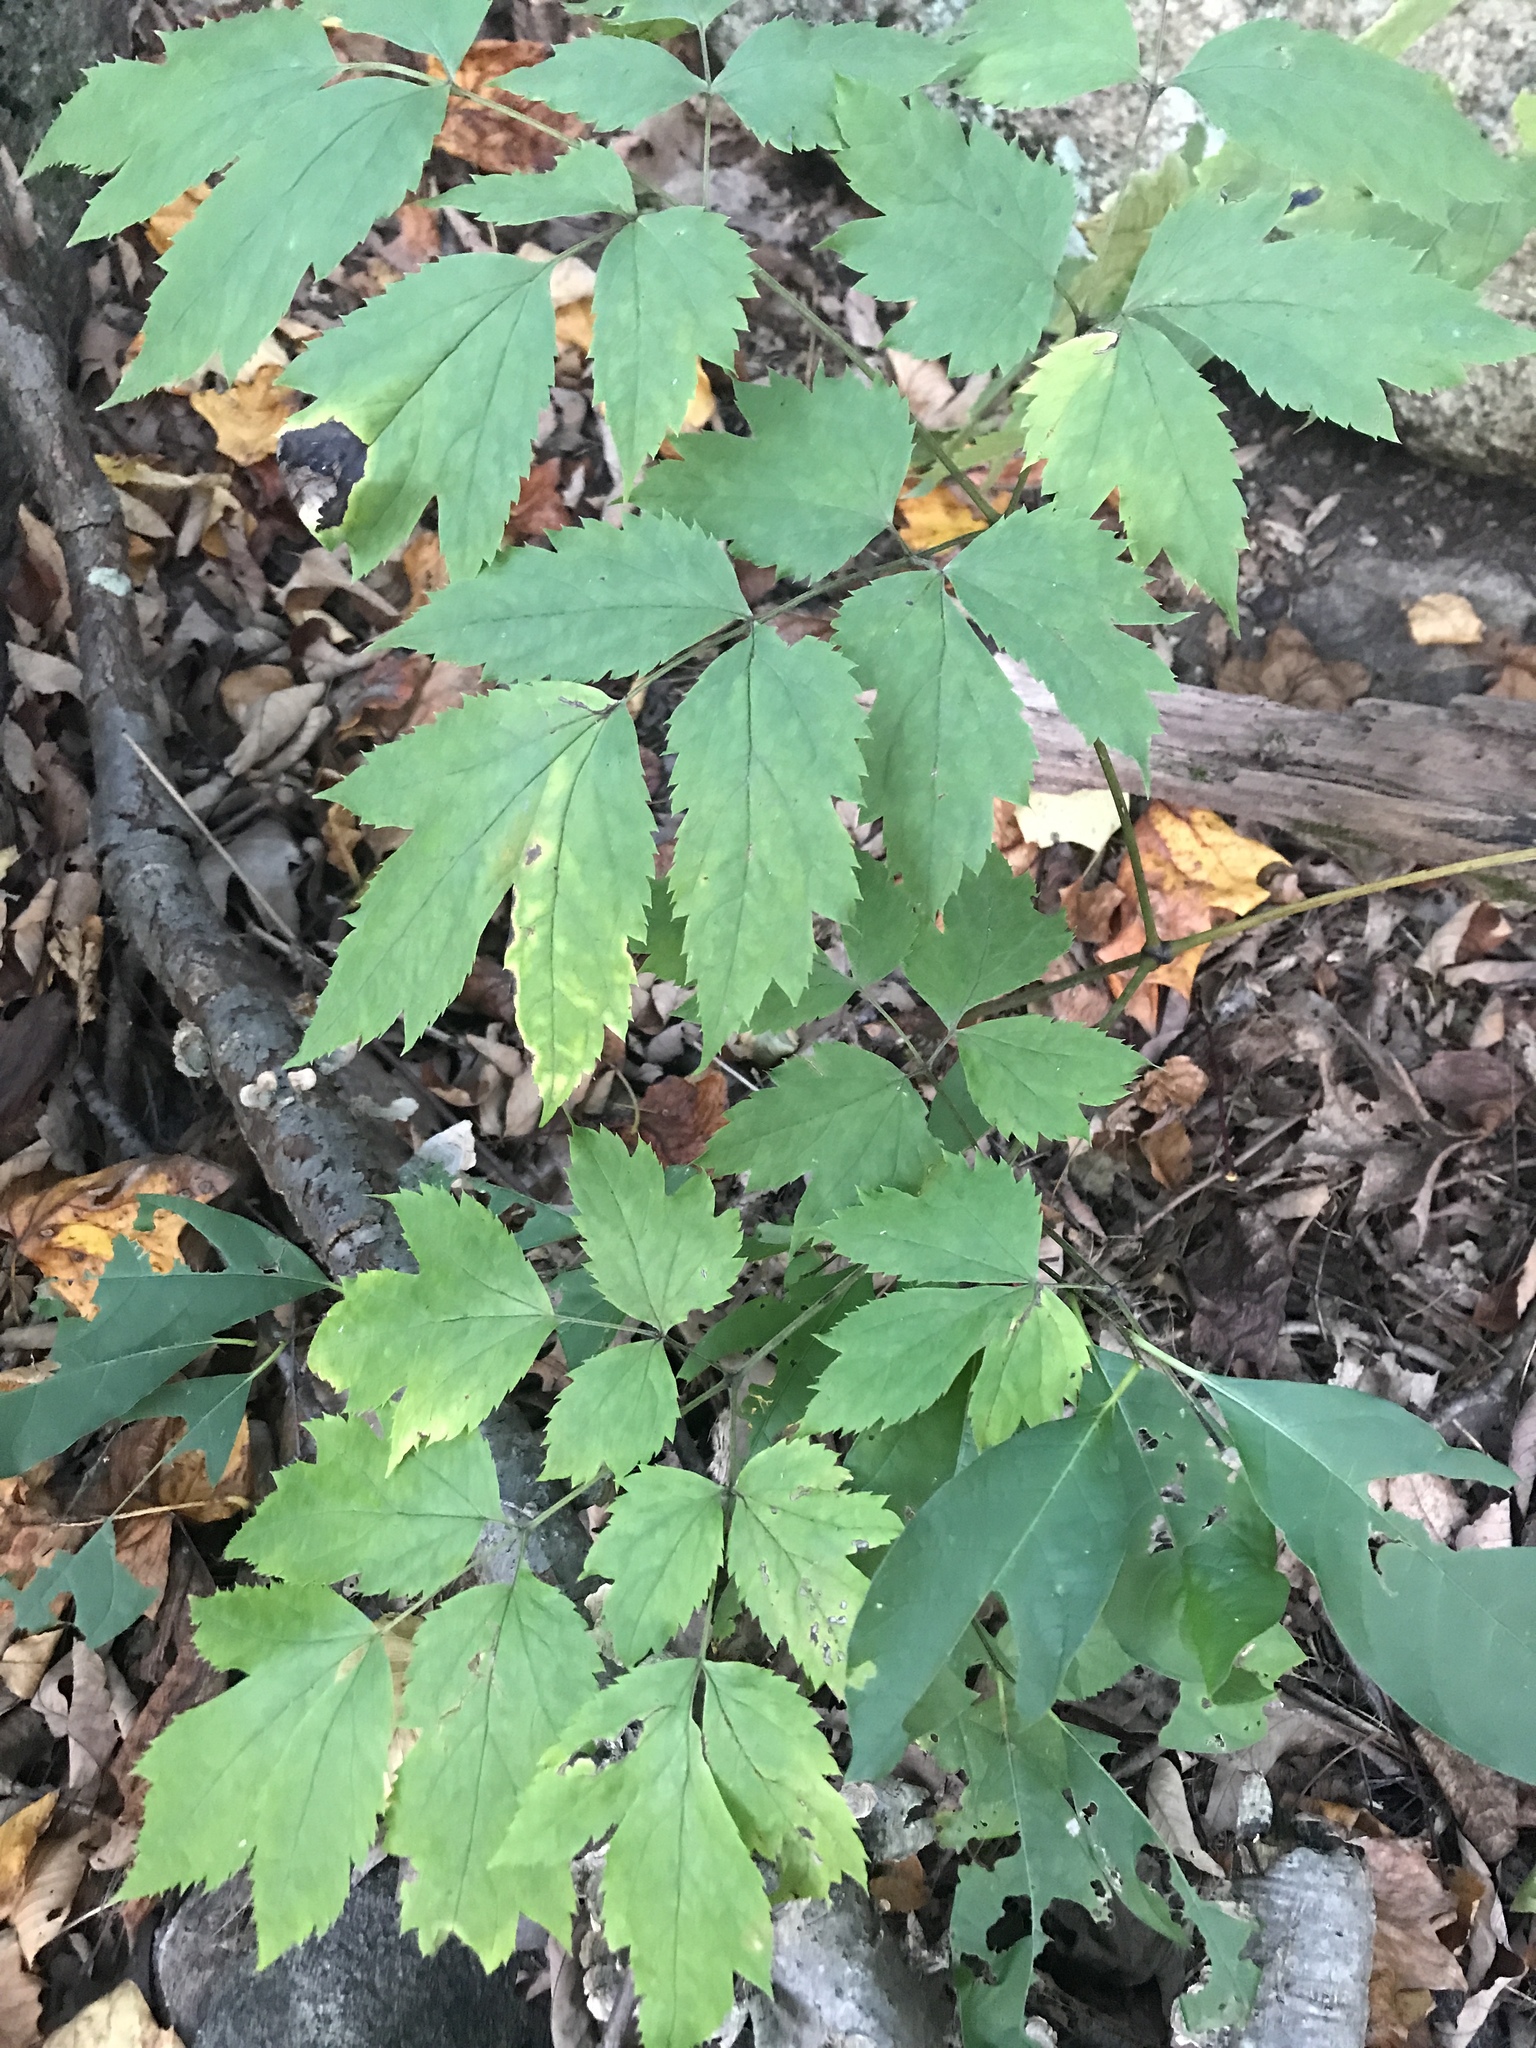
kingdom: Plantae
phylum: Tracheophyta
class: Magnoliopsida
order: Ranunculales
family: Ranunculaceae
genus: Actaea
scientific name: Actaea racemosa
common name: Black cohosh
